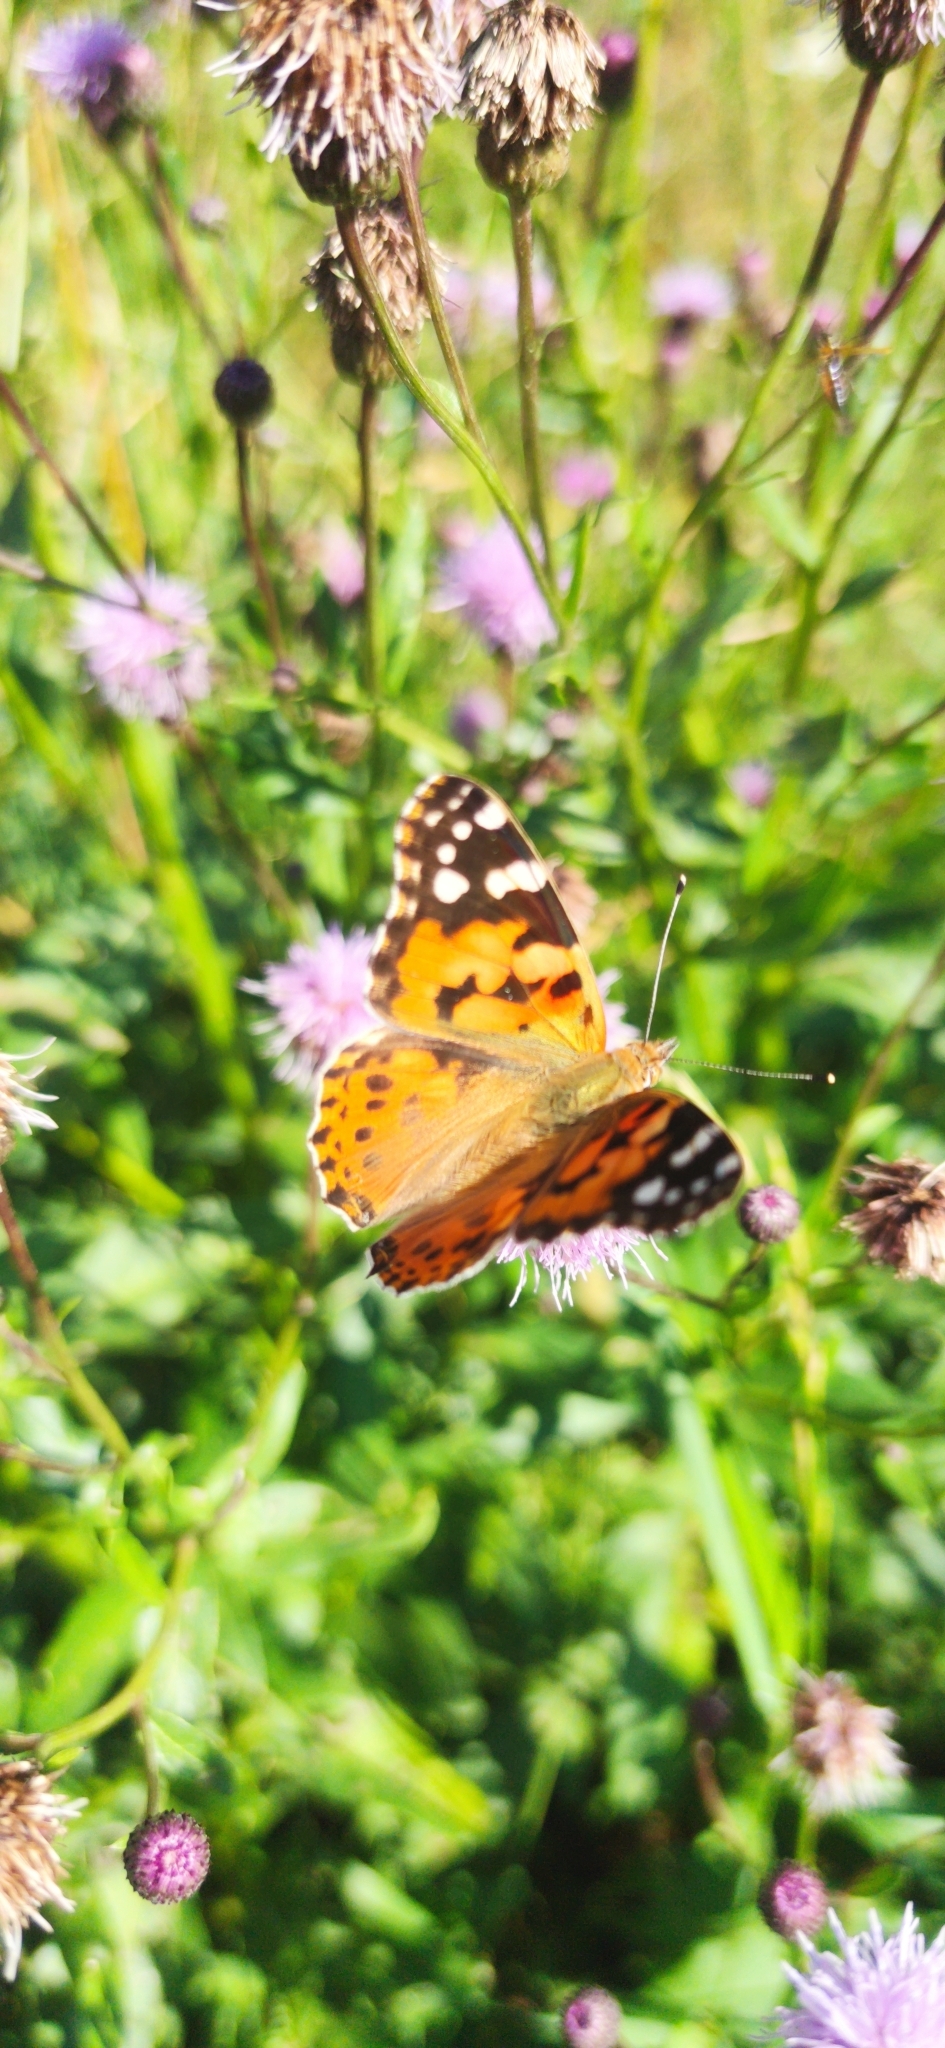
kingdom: Animalia
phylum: Arthropoda
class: Insecta
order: Lepidoptera
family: Nymphalidae
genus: Vanessa
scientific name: Vanessa cardui
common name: Painted lady
